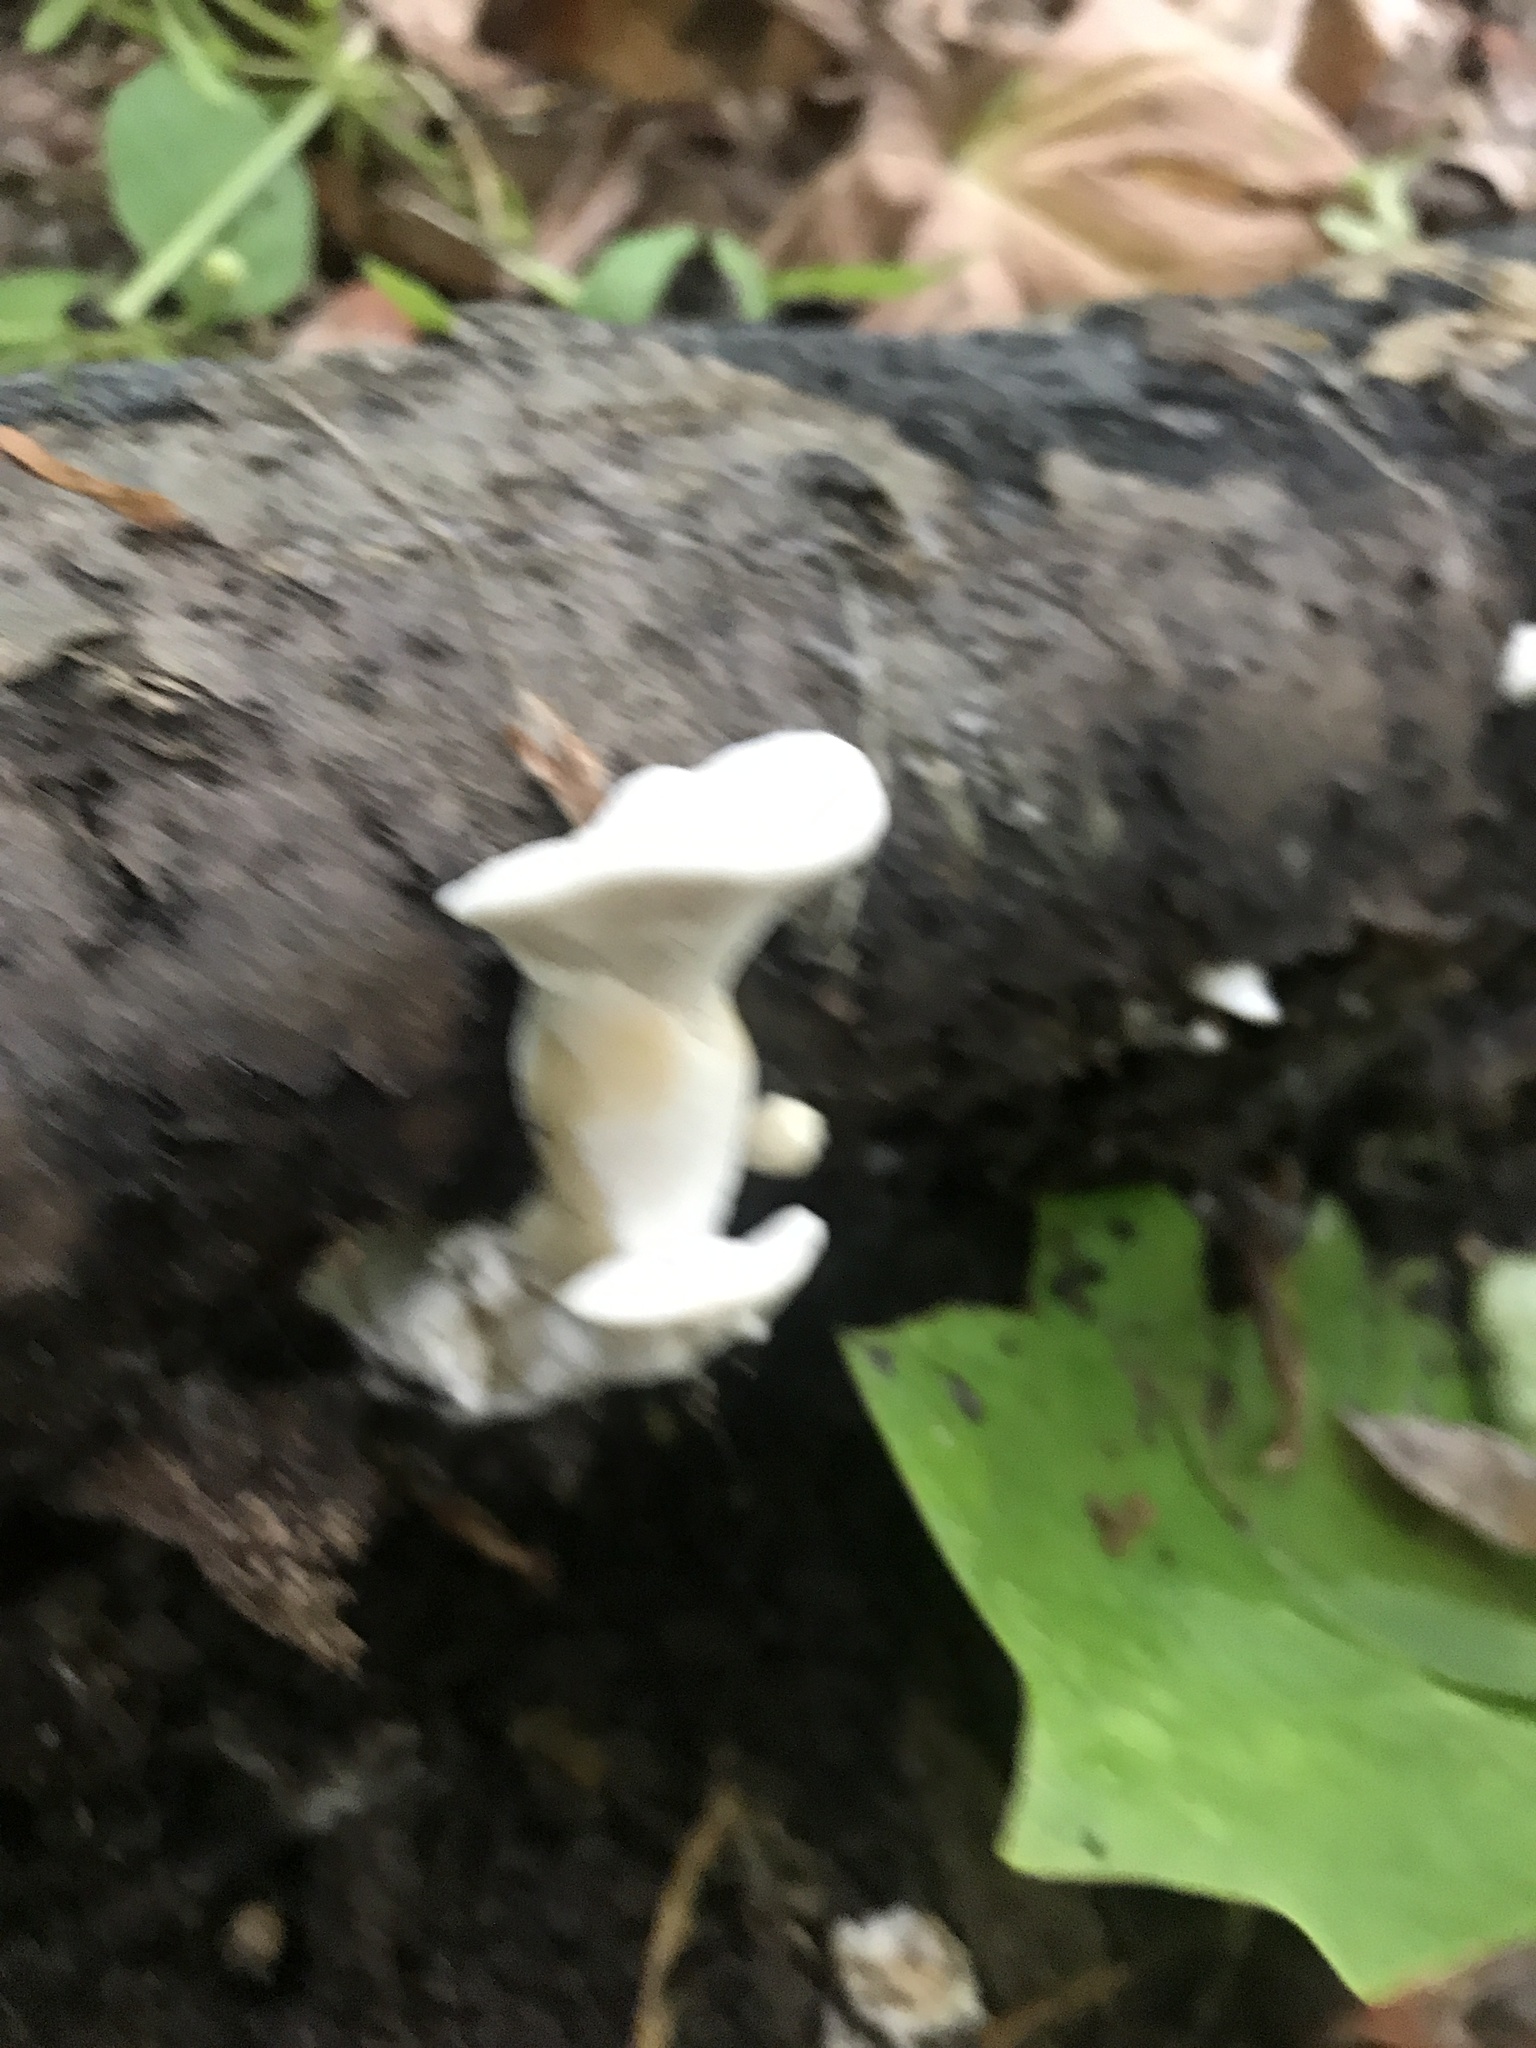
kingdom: Fungi
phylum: Basidiomycota
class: Agaricomycetes
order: Polyporales
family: Steccherinaceae
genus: Loweomyces
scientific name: Loweomyces fractipes
